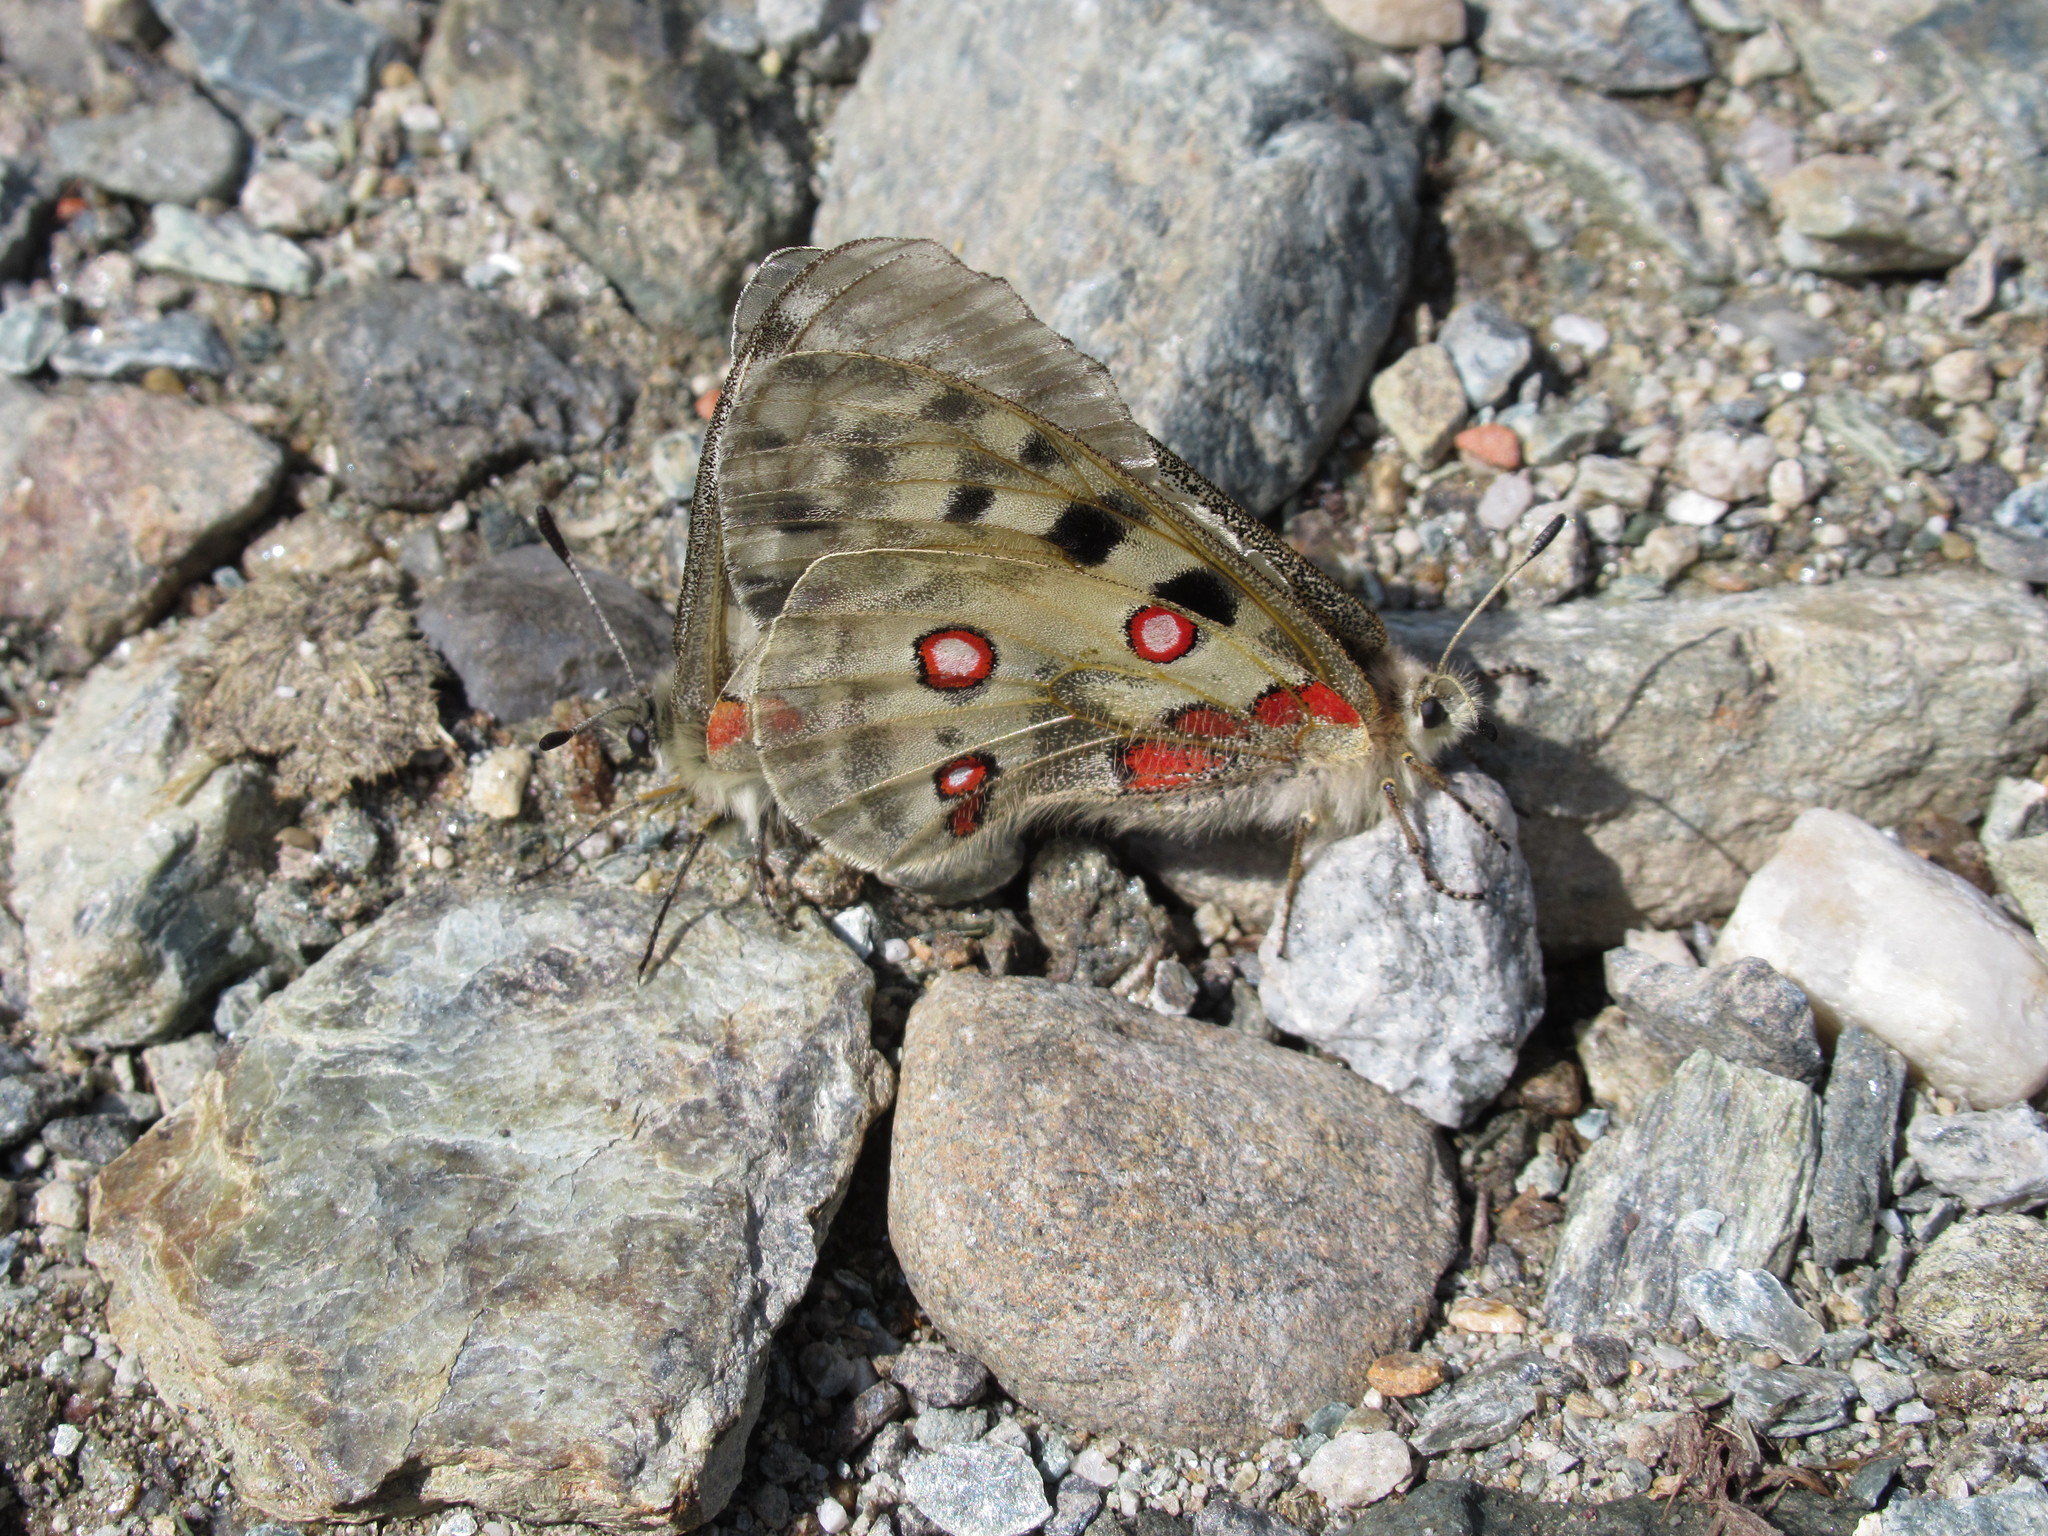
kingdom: Animalia
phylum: Arthropoda
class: Insecta
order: Lepidoptera
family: Papilionidae
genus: Parnassius
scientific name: Parnassius apollo
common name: Apollo
